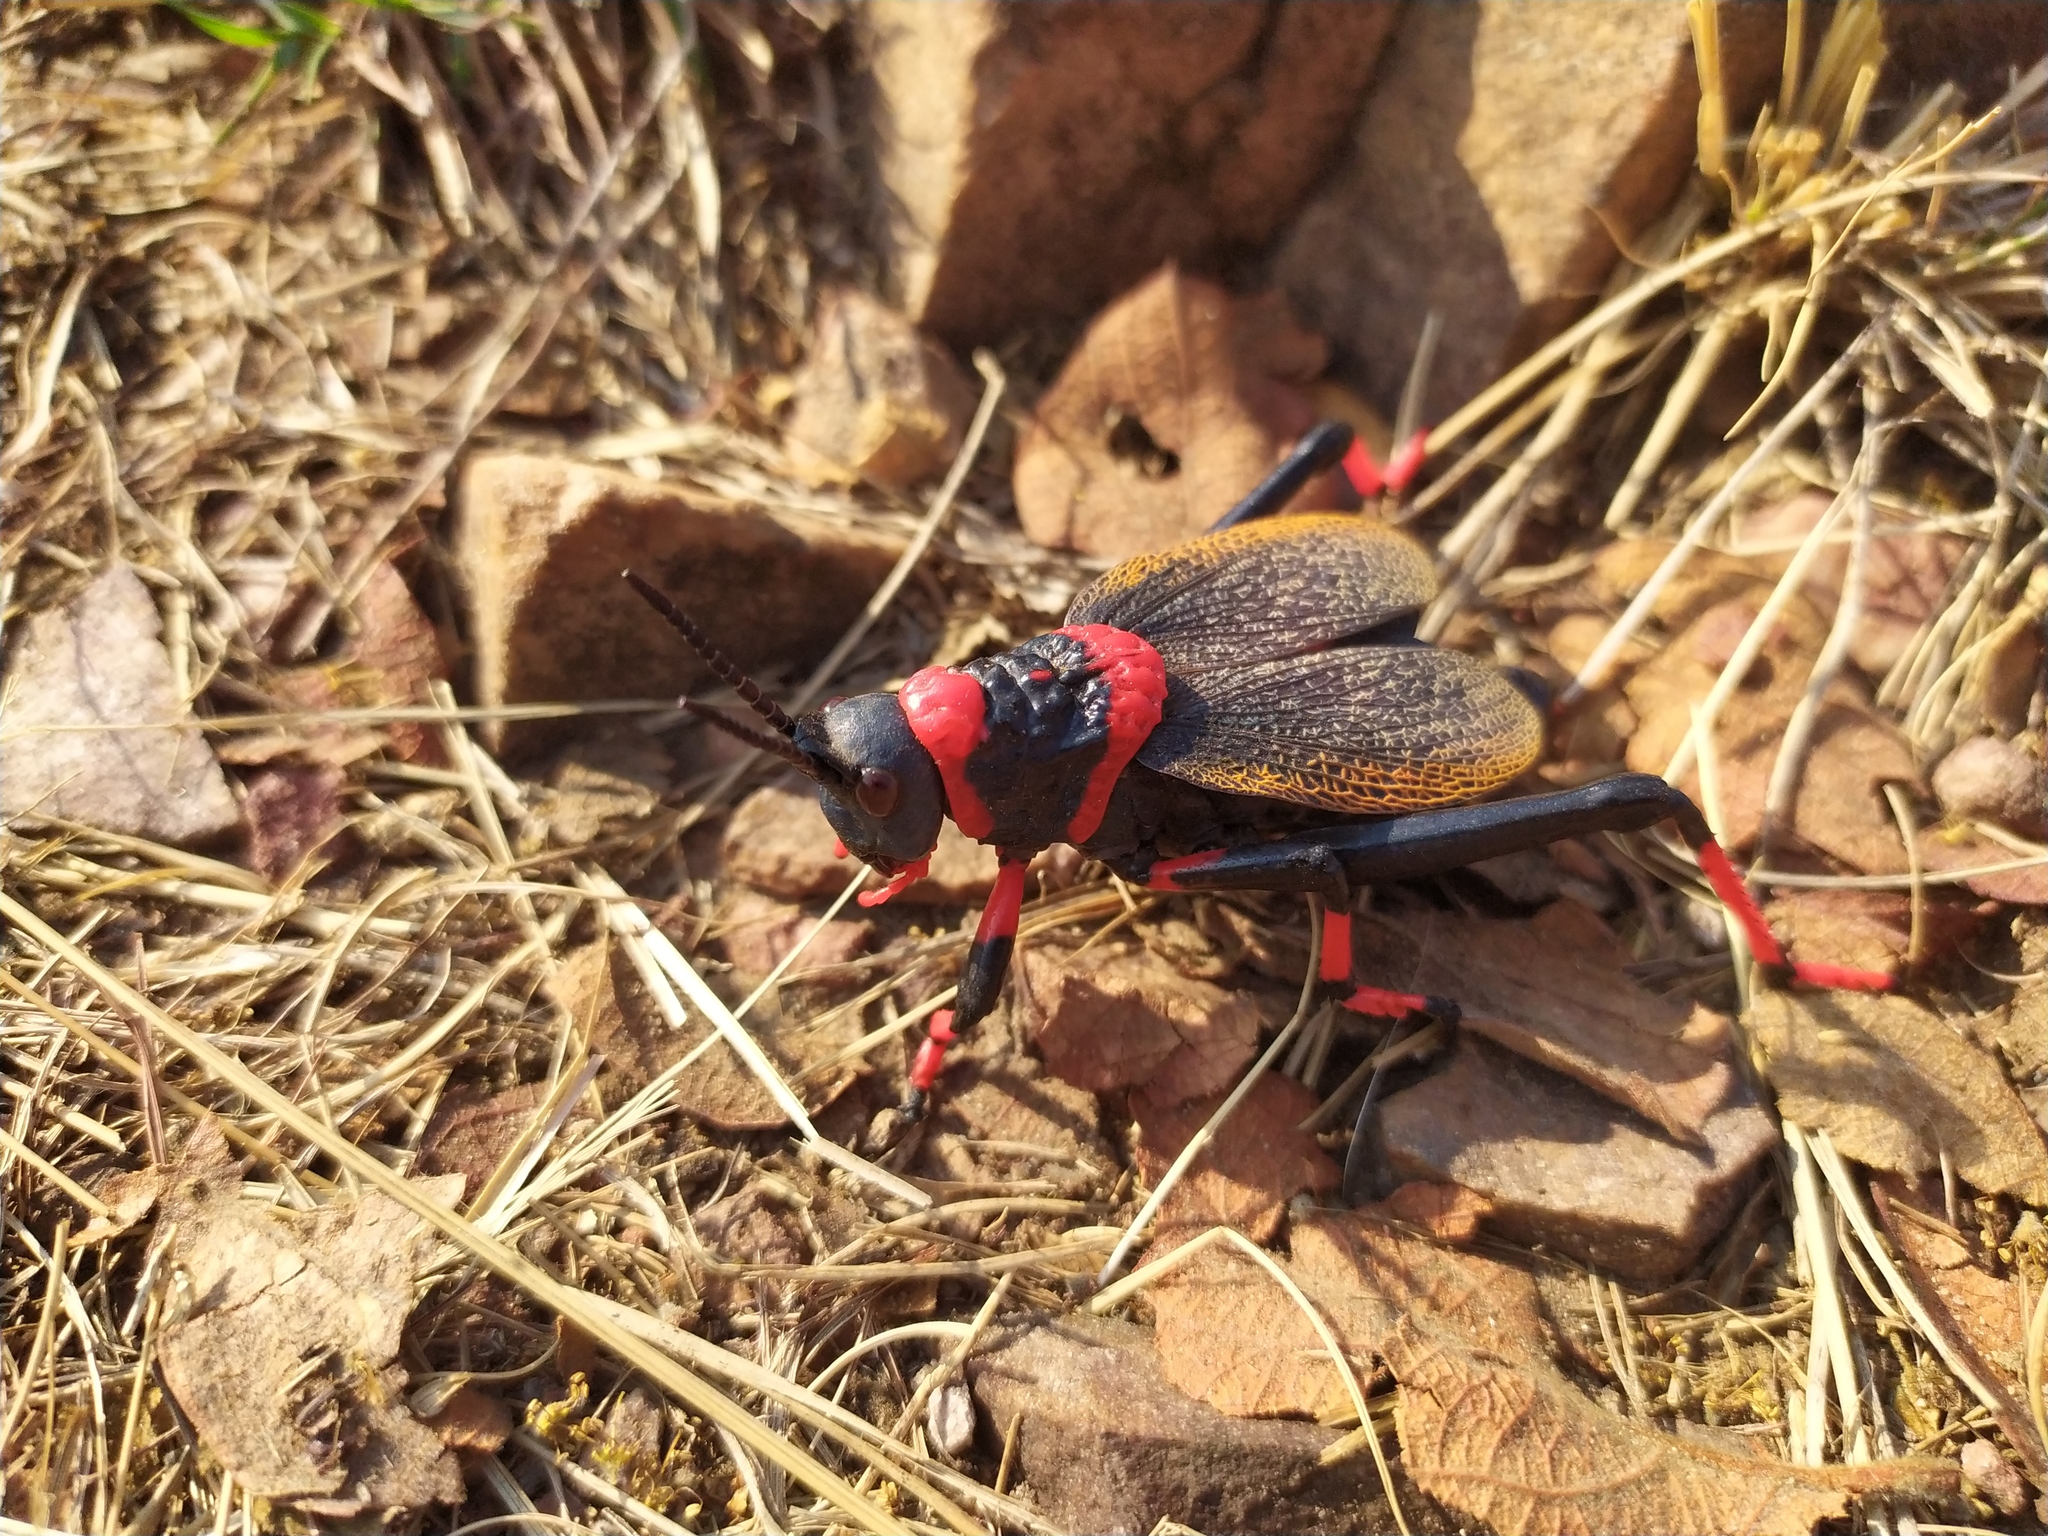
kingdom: Animalia
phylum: Arthropoda
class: Insecta
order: Orthoptera
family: Pyrgomorphidae
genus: Dictyophorus
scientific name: Dictyophorus spumans
